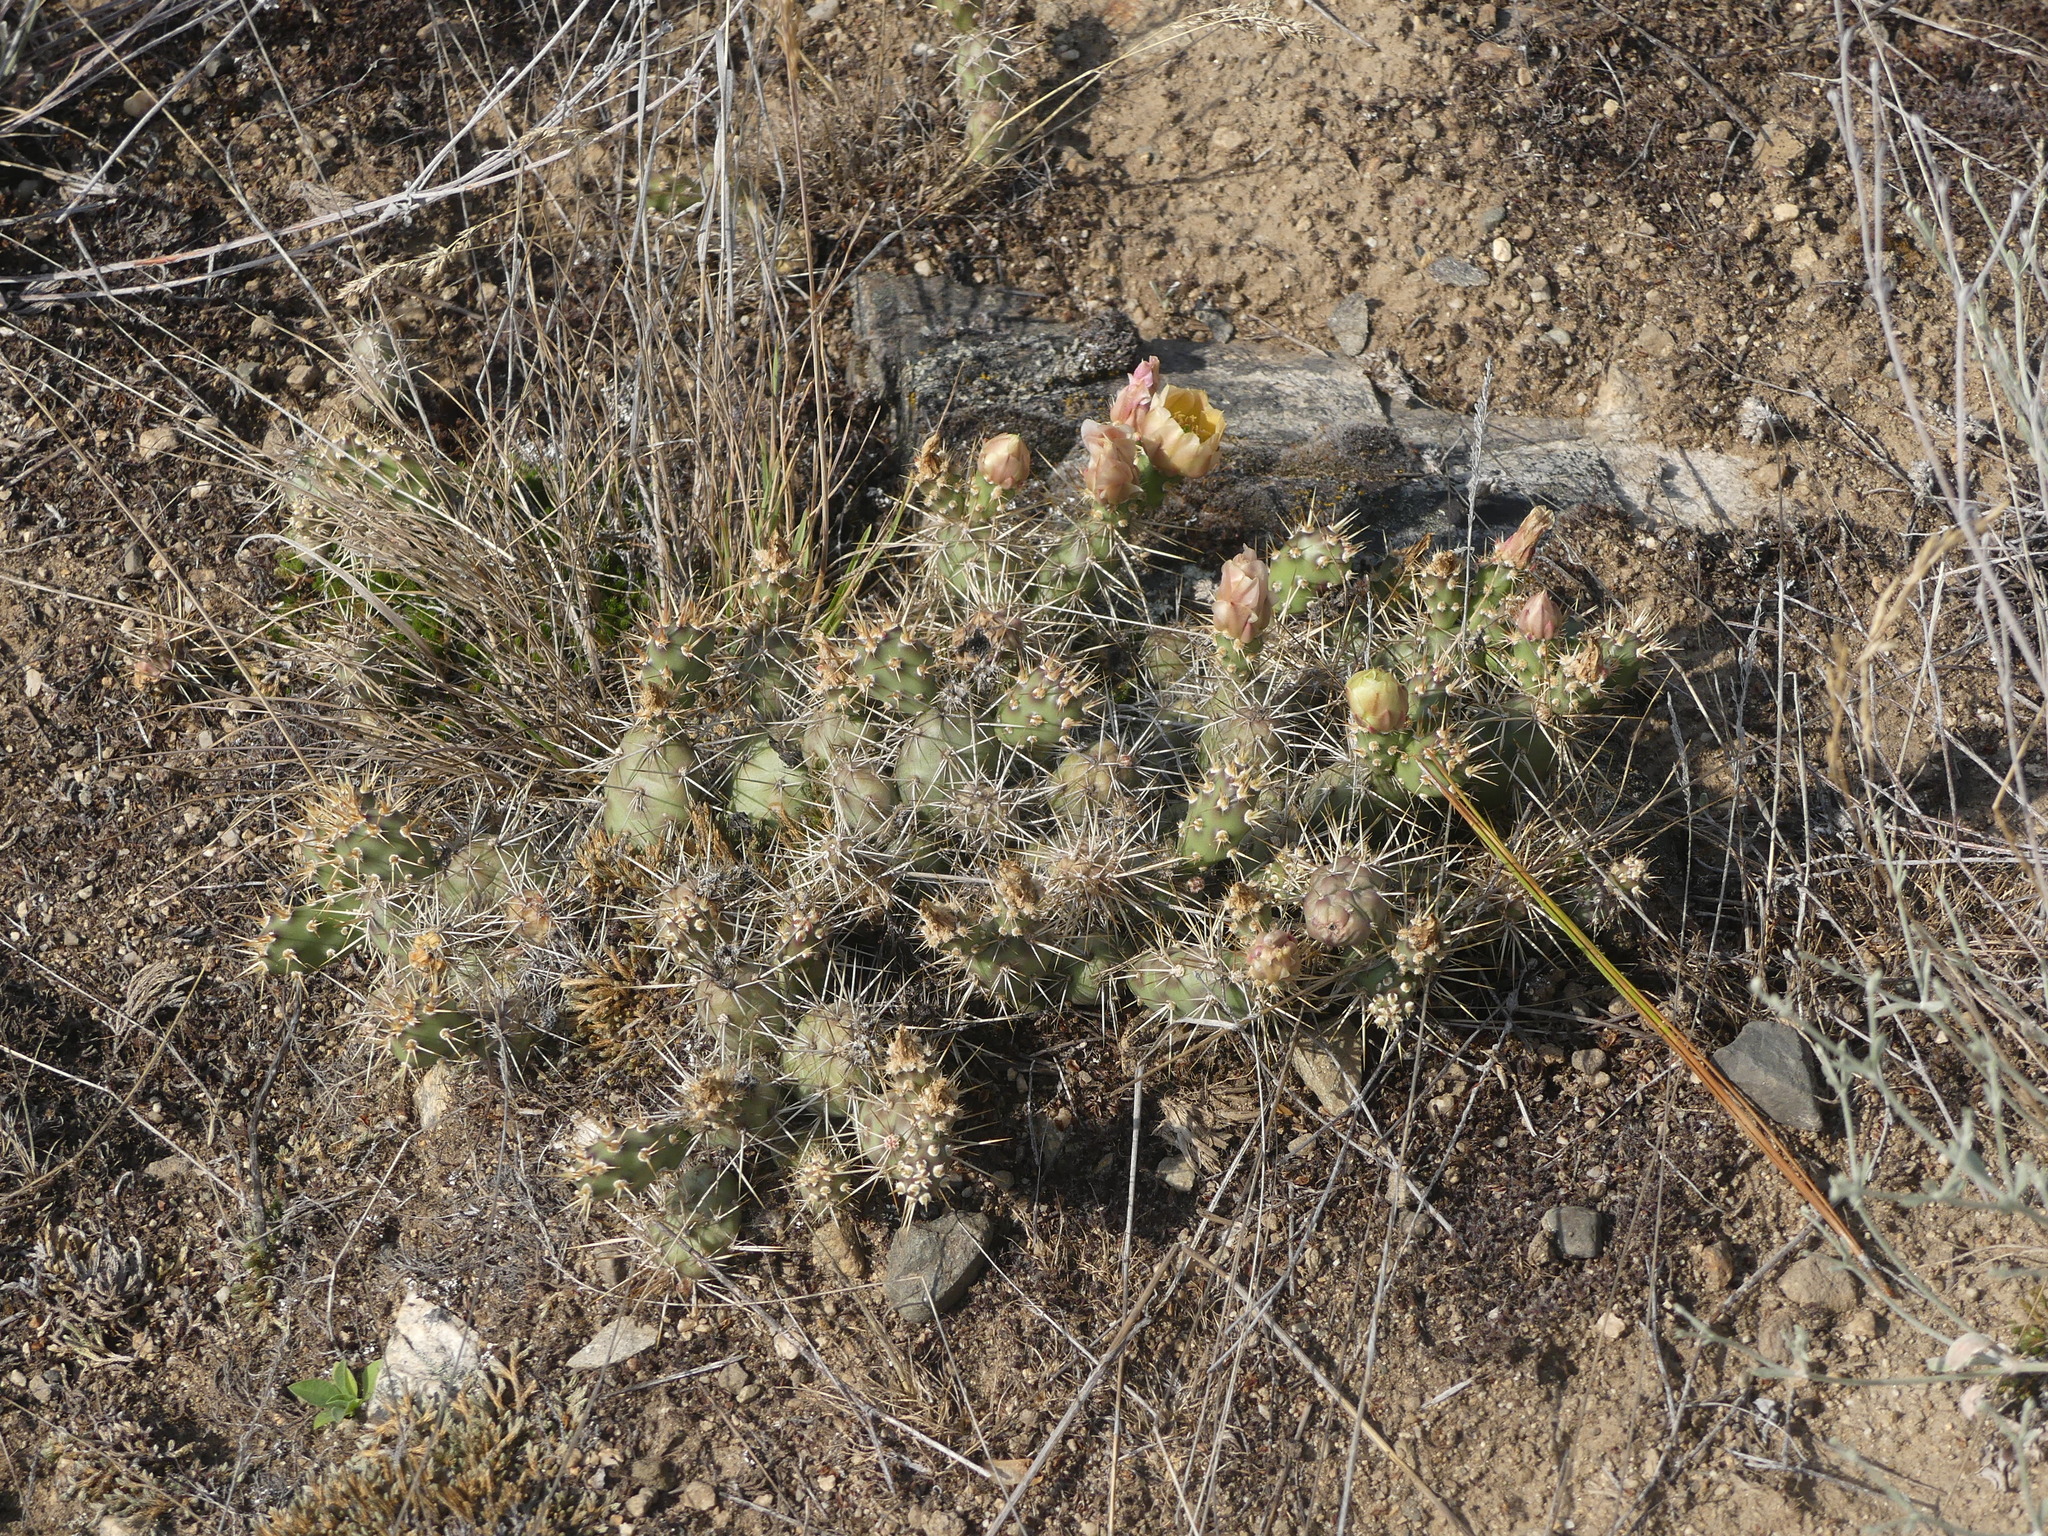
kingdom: Plantae
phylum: Tracheophyta
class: Magnoliopsida
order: Caryophyllales
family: Cactaceae
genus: Opuntia
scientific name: Opuntia fragilis
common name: Brittle cactus
